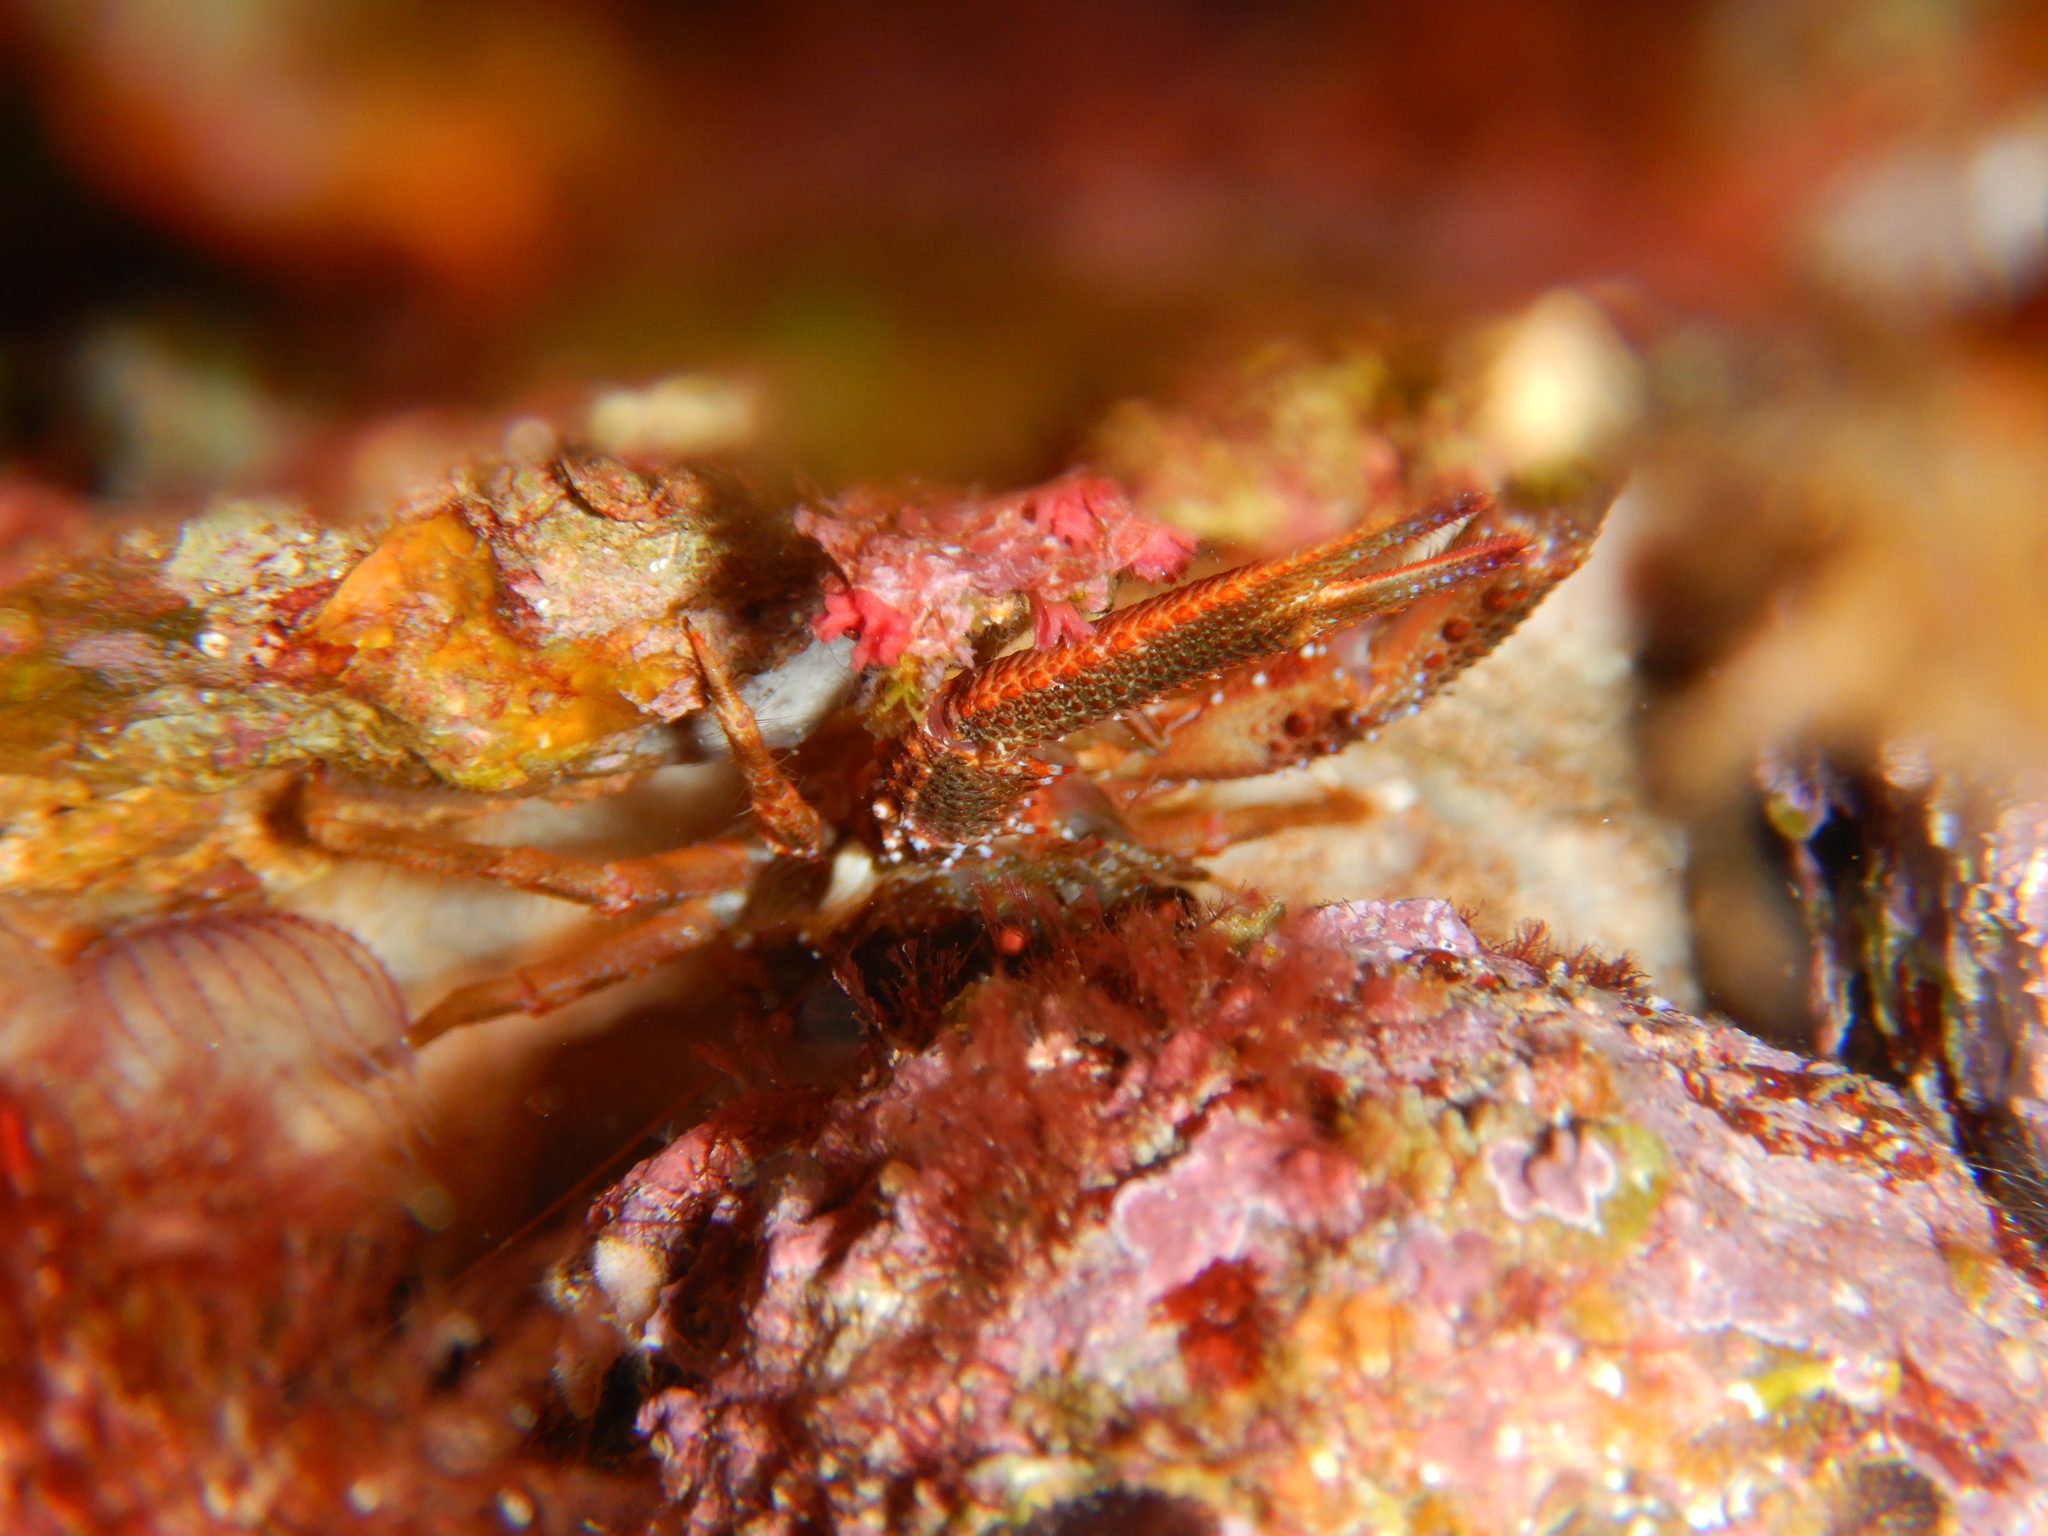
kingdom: Animalia
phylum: Arthropoda
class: Malacostraca
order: Decapoda
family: Galatheidae
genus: Galathea
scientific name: Galathea squamifera
